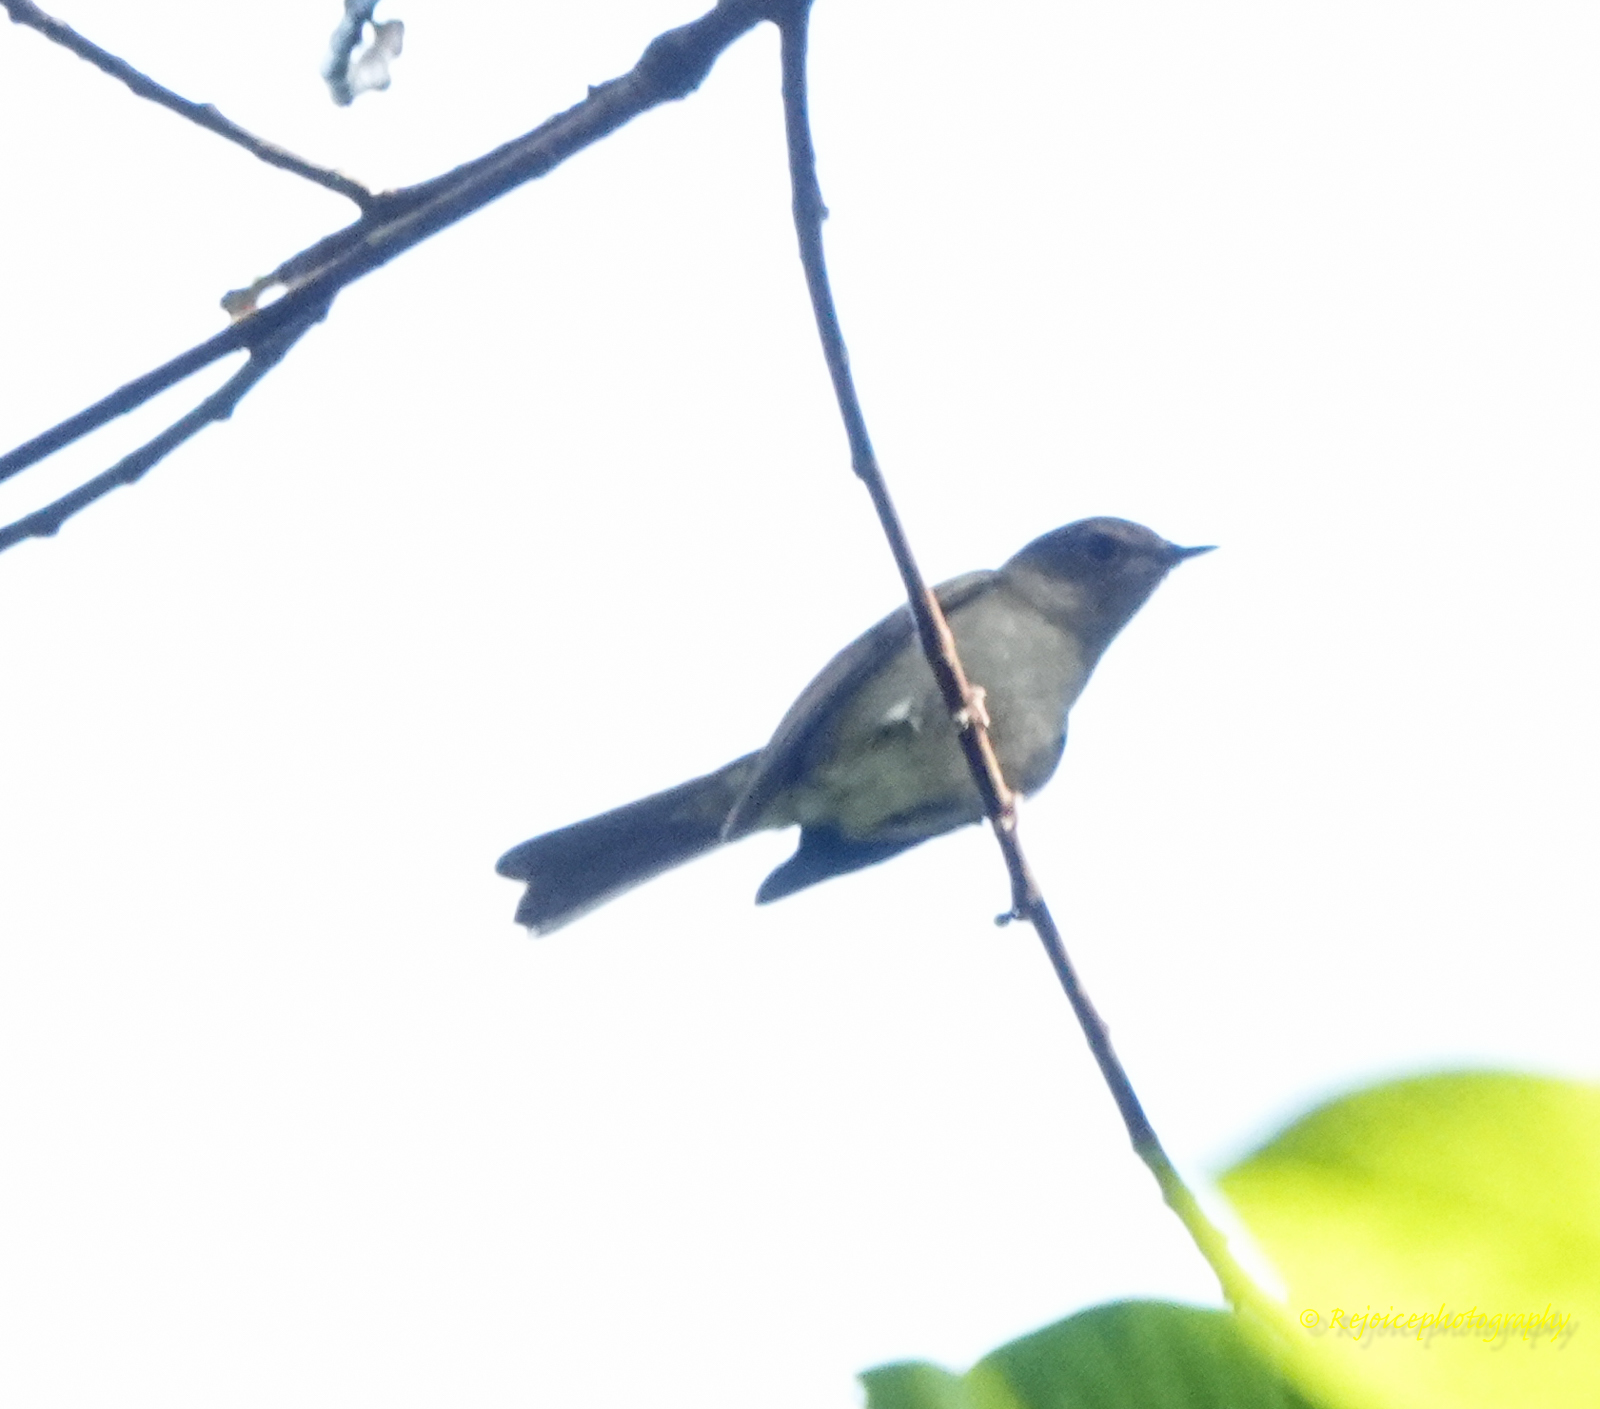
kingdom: Animalia
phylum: Chordata
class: Aves
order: Passeriformes
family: Muscicapidae
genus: Cyornis
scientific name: Cyornis unicolor
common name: Pale blue flycatcher
